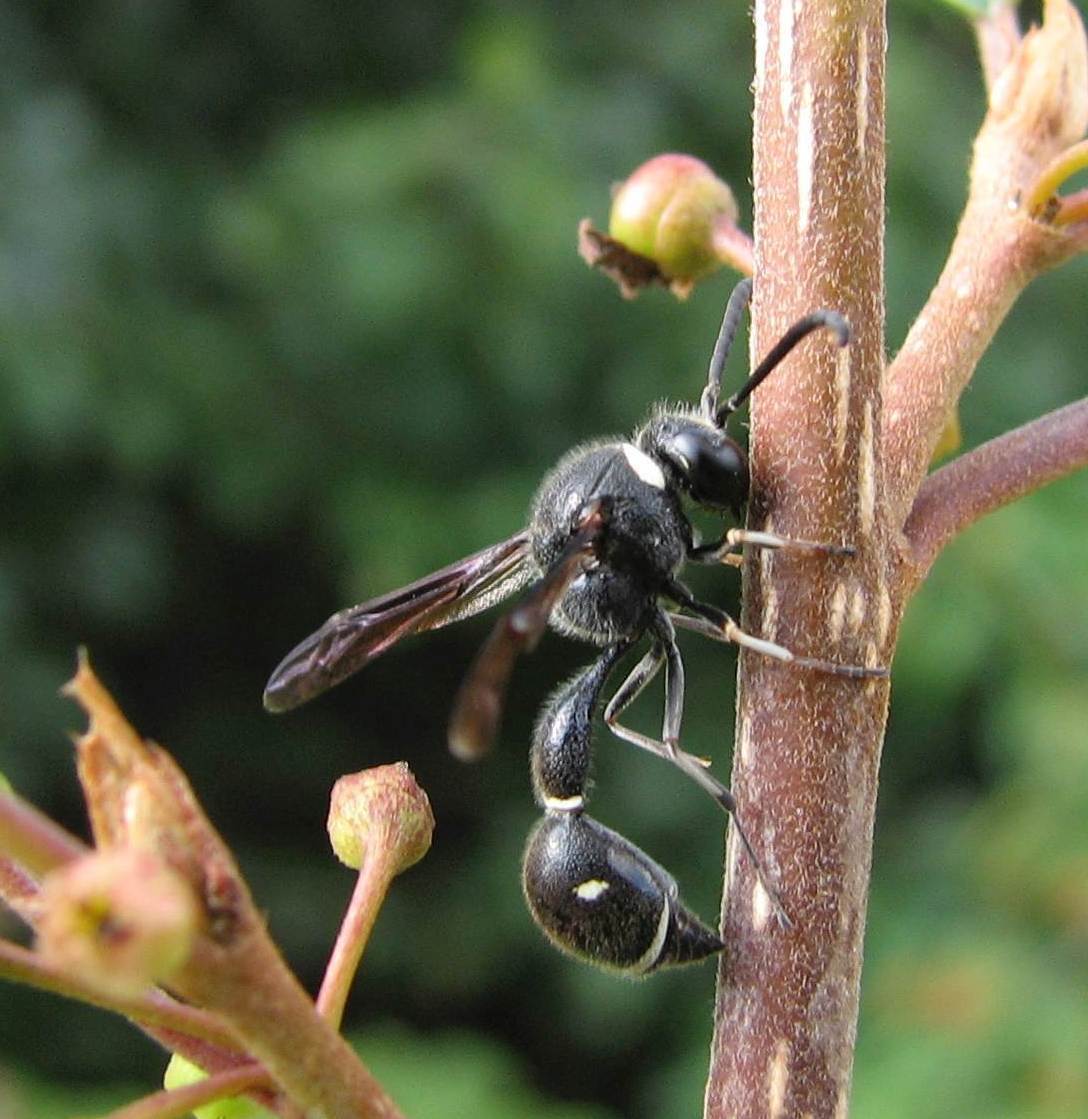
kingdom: Animalia
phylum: Arthropoda
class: Insecta
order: Hymenoptera
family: Vespidae
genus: Eumenes
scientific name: Eumenes fraternus
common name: Fraternal potter wasp
